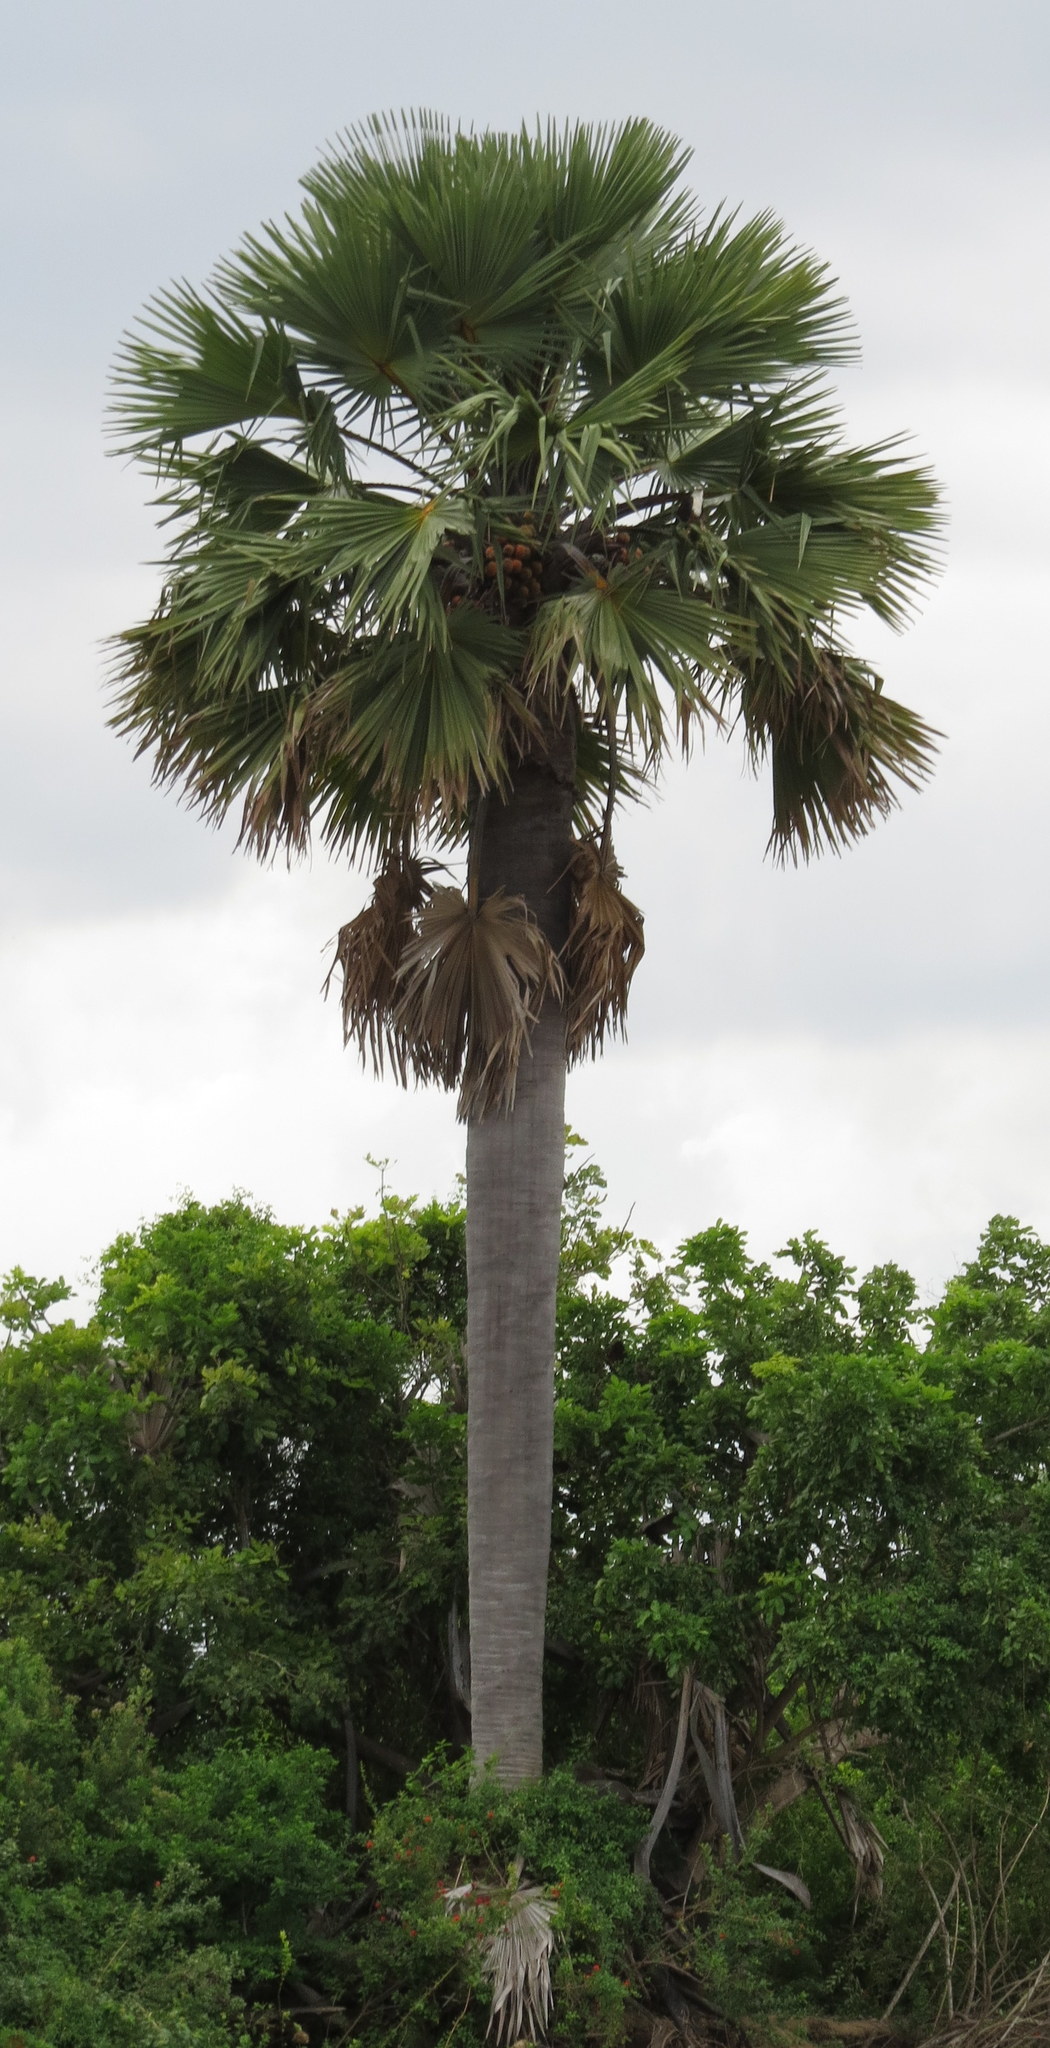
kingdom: Plantae
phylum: Tracheophyta
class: Liliopsida
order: Arecales
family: Arecaceae
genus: Borassus
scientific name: Borassus aethiopum
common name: Elephant palm
